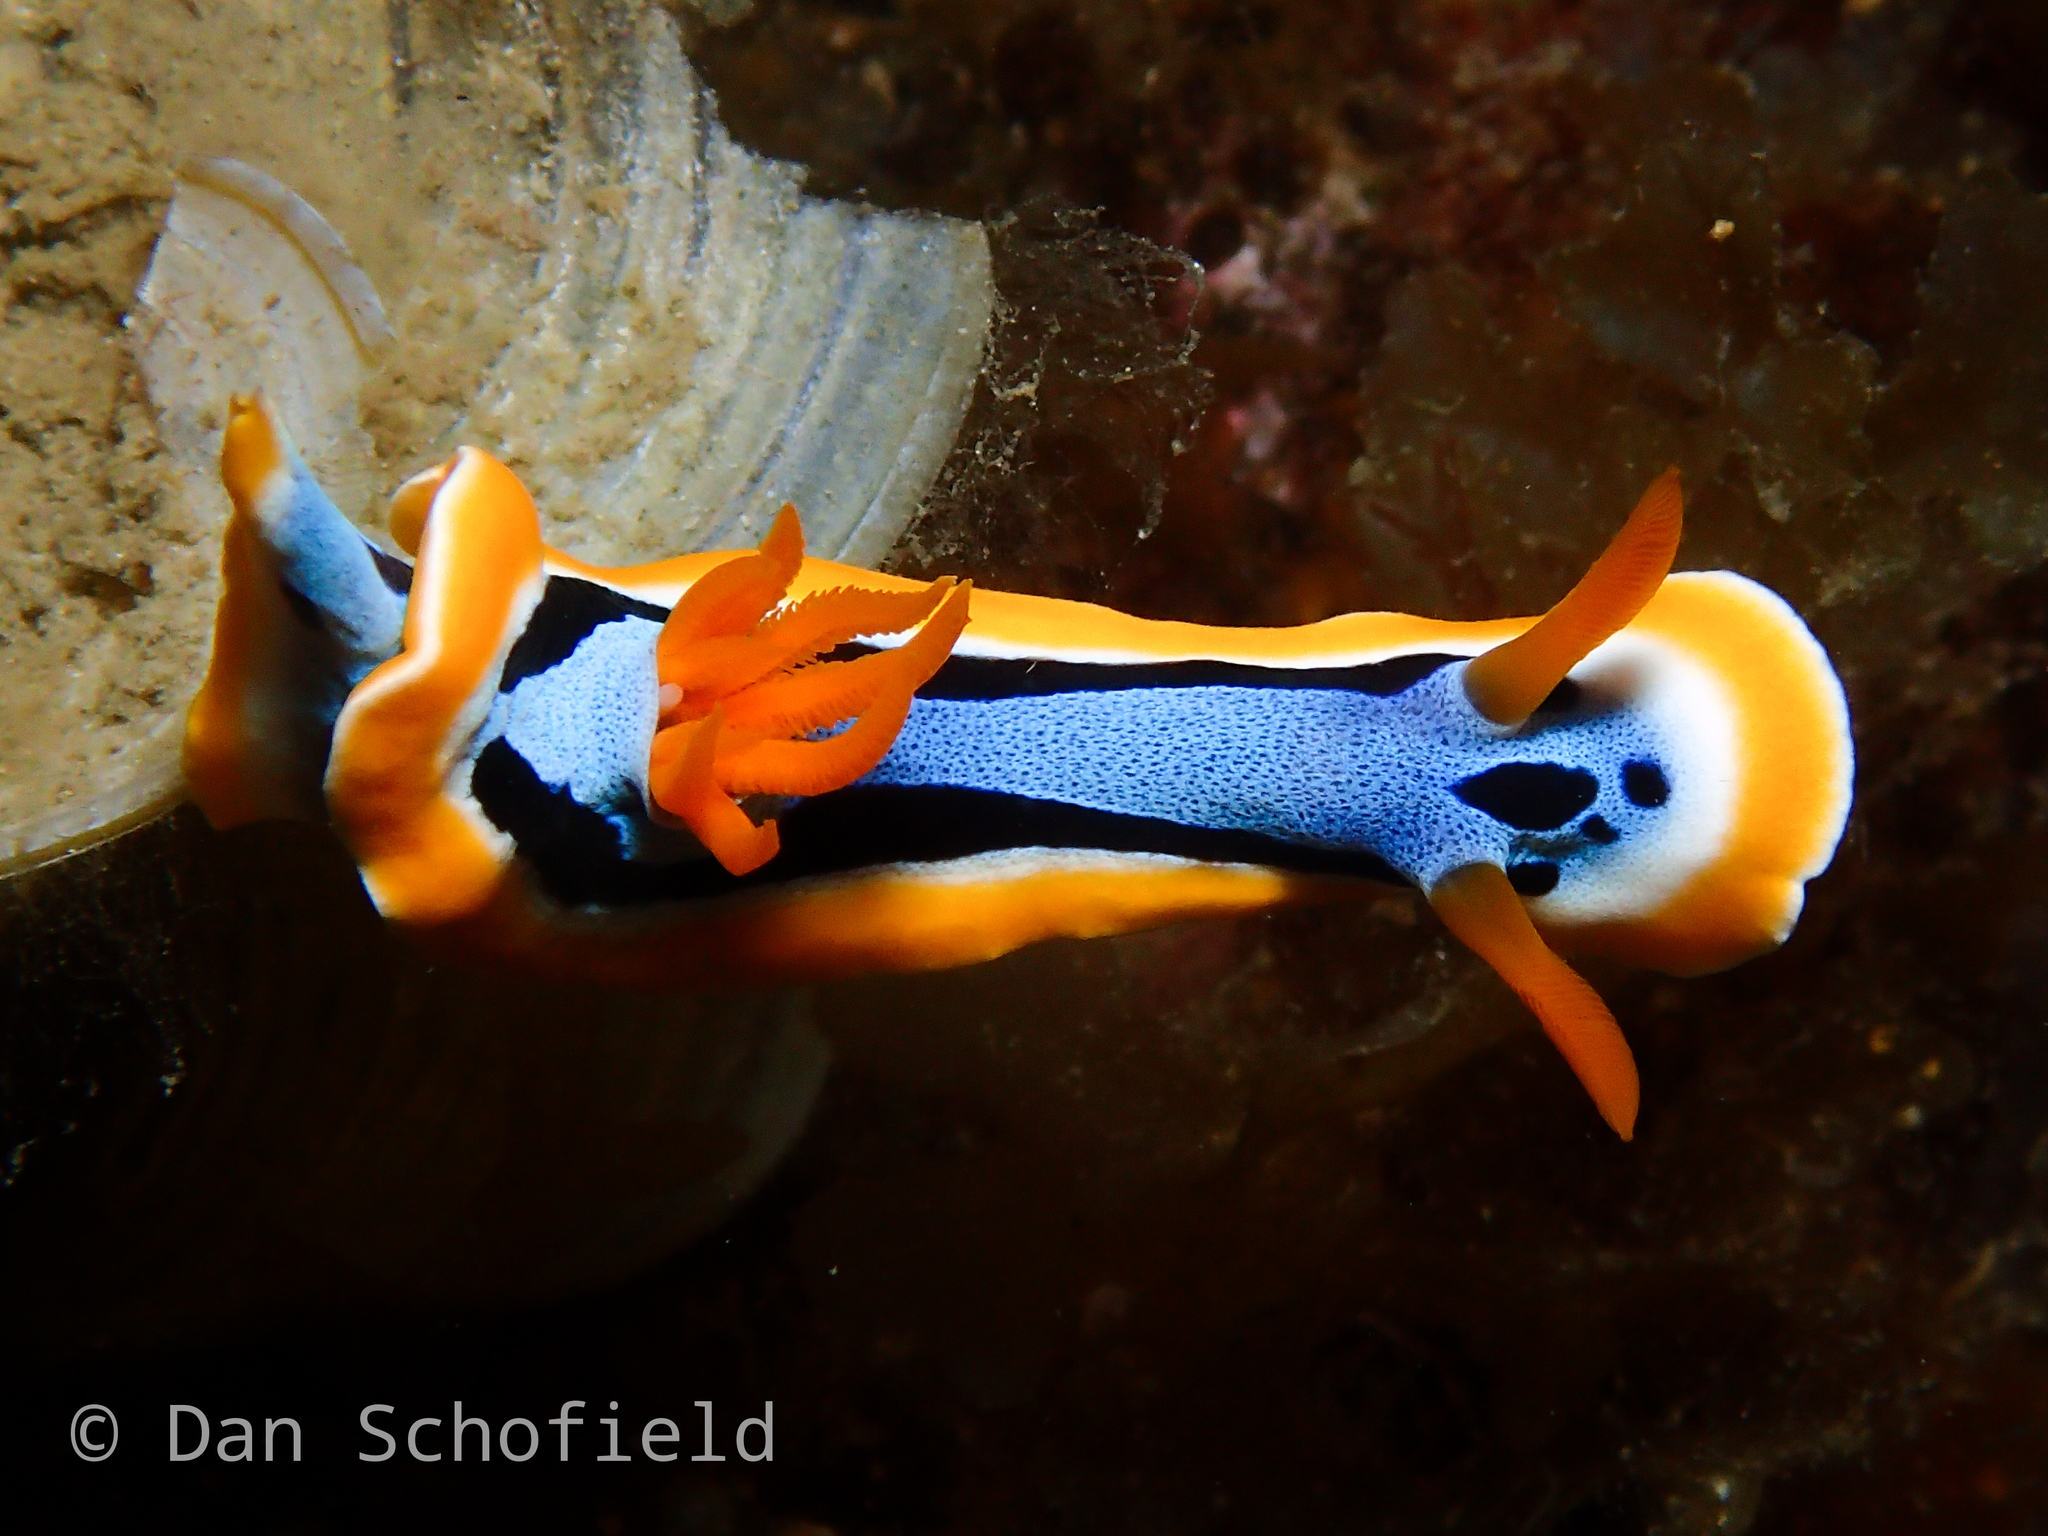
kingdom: Animalia
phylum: Mollusca
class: Gastropoda
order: Nudibranchia
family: Chromodorididae
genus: Chromodoris
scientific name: Chromodoris annae
